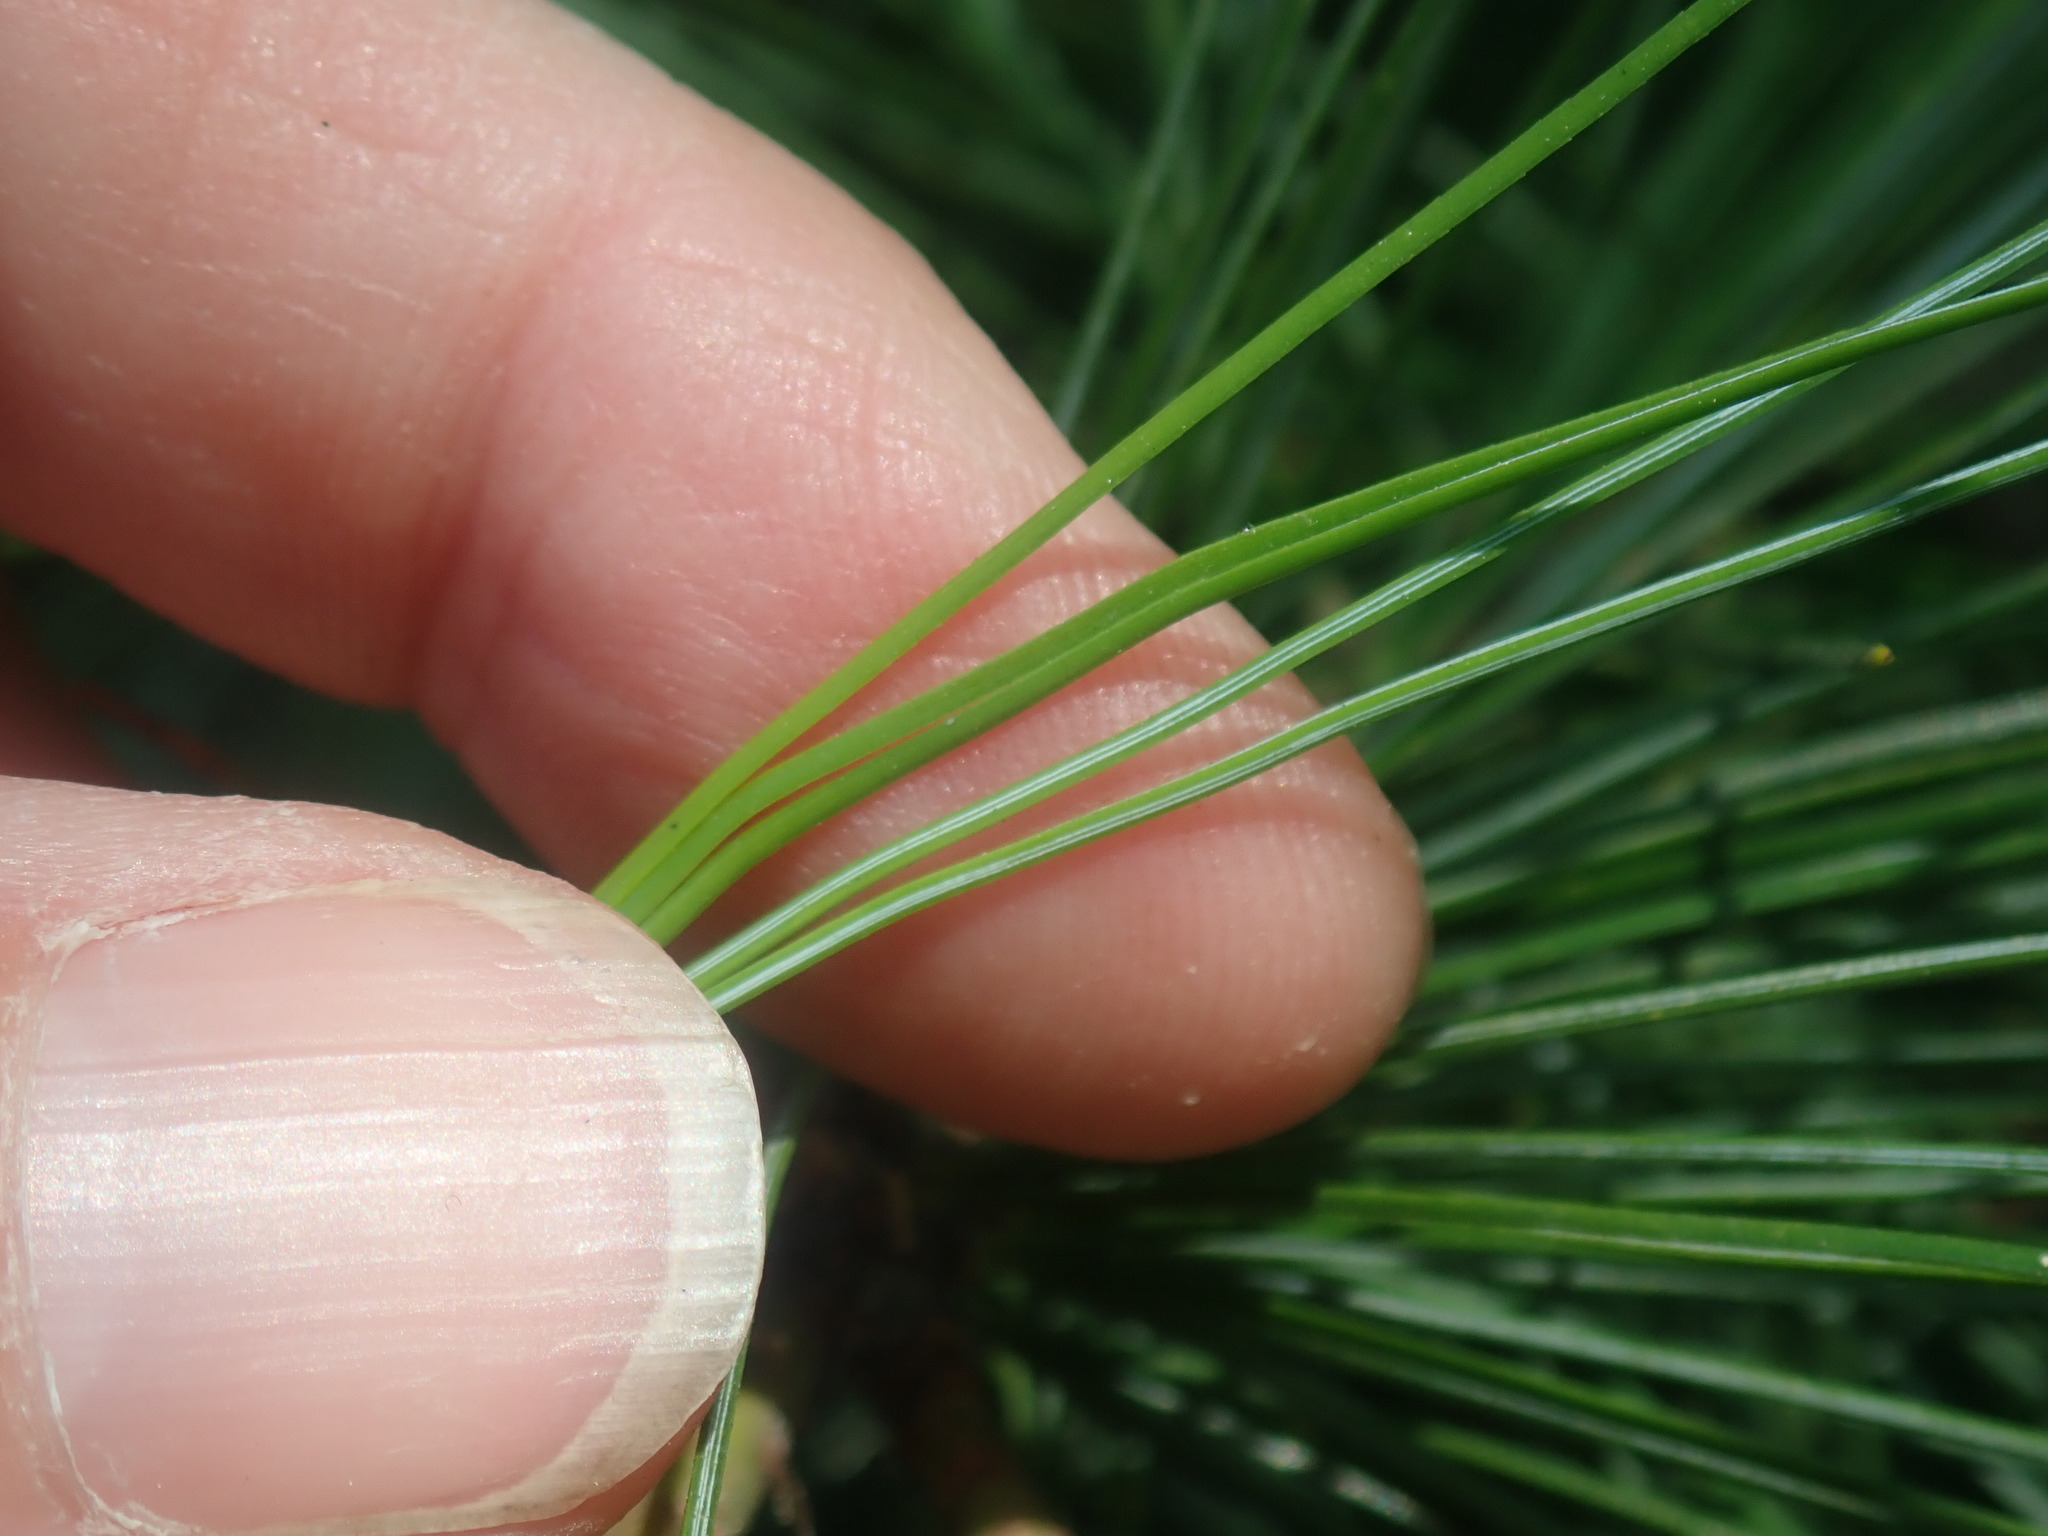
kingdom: Plantae
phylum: Tracheophyta
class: Pinopsida
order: Pinales
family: Pinaceae
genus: Pinus
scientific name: Pinus strobus
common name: Weymouth pine
